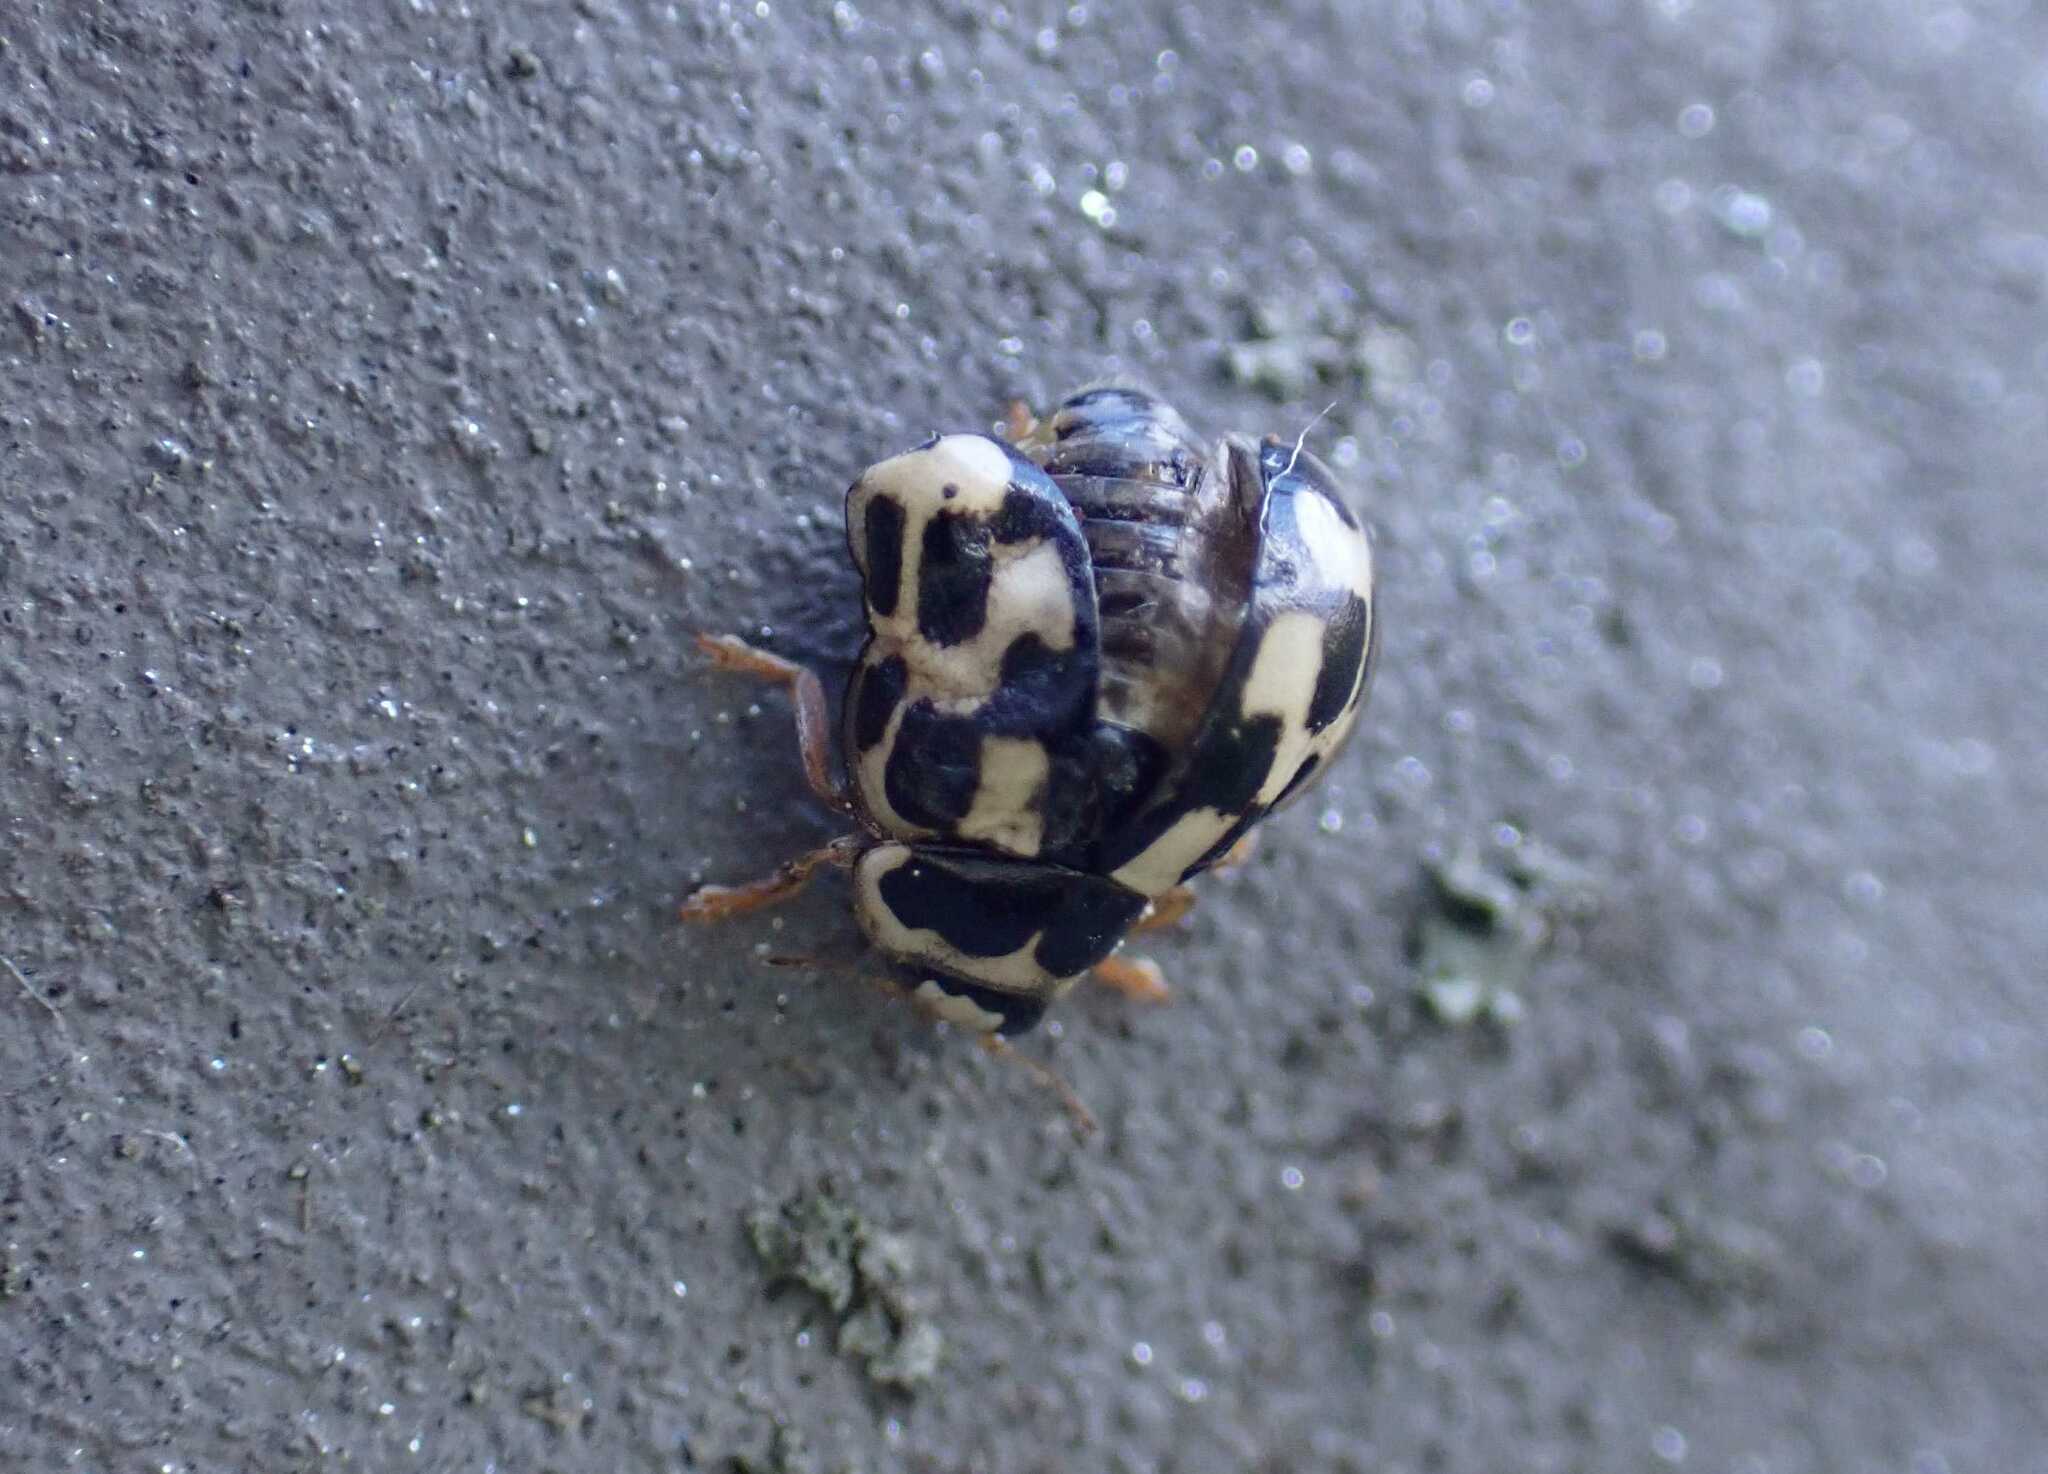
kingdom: Animalia
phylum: Arthropoda
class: Insecta
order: Coleoptera
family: Coccinellidae
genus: Propylaea
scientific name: Propylaea quatuordecimpunctata
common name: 14-spotted ladybird beetle
